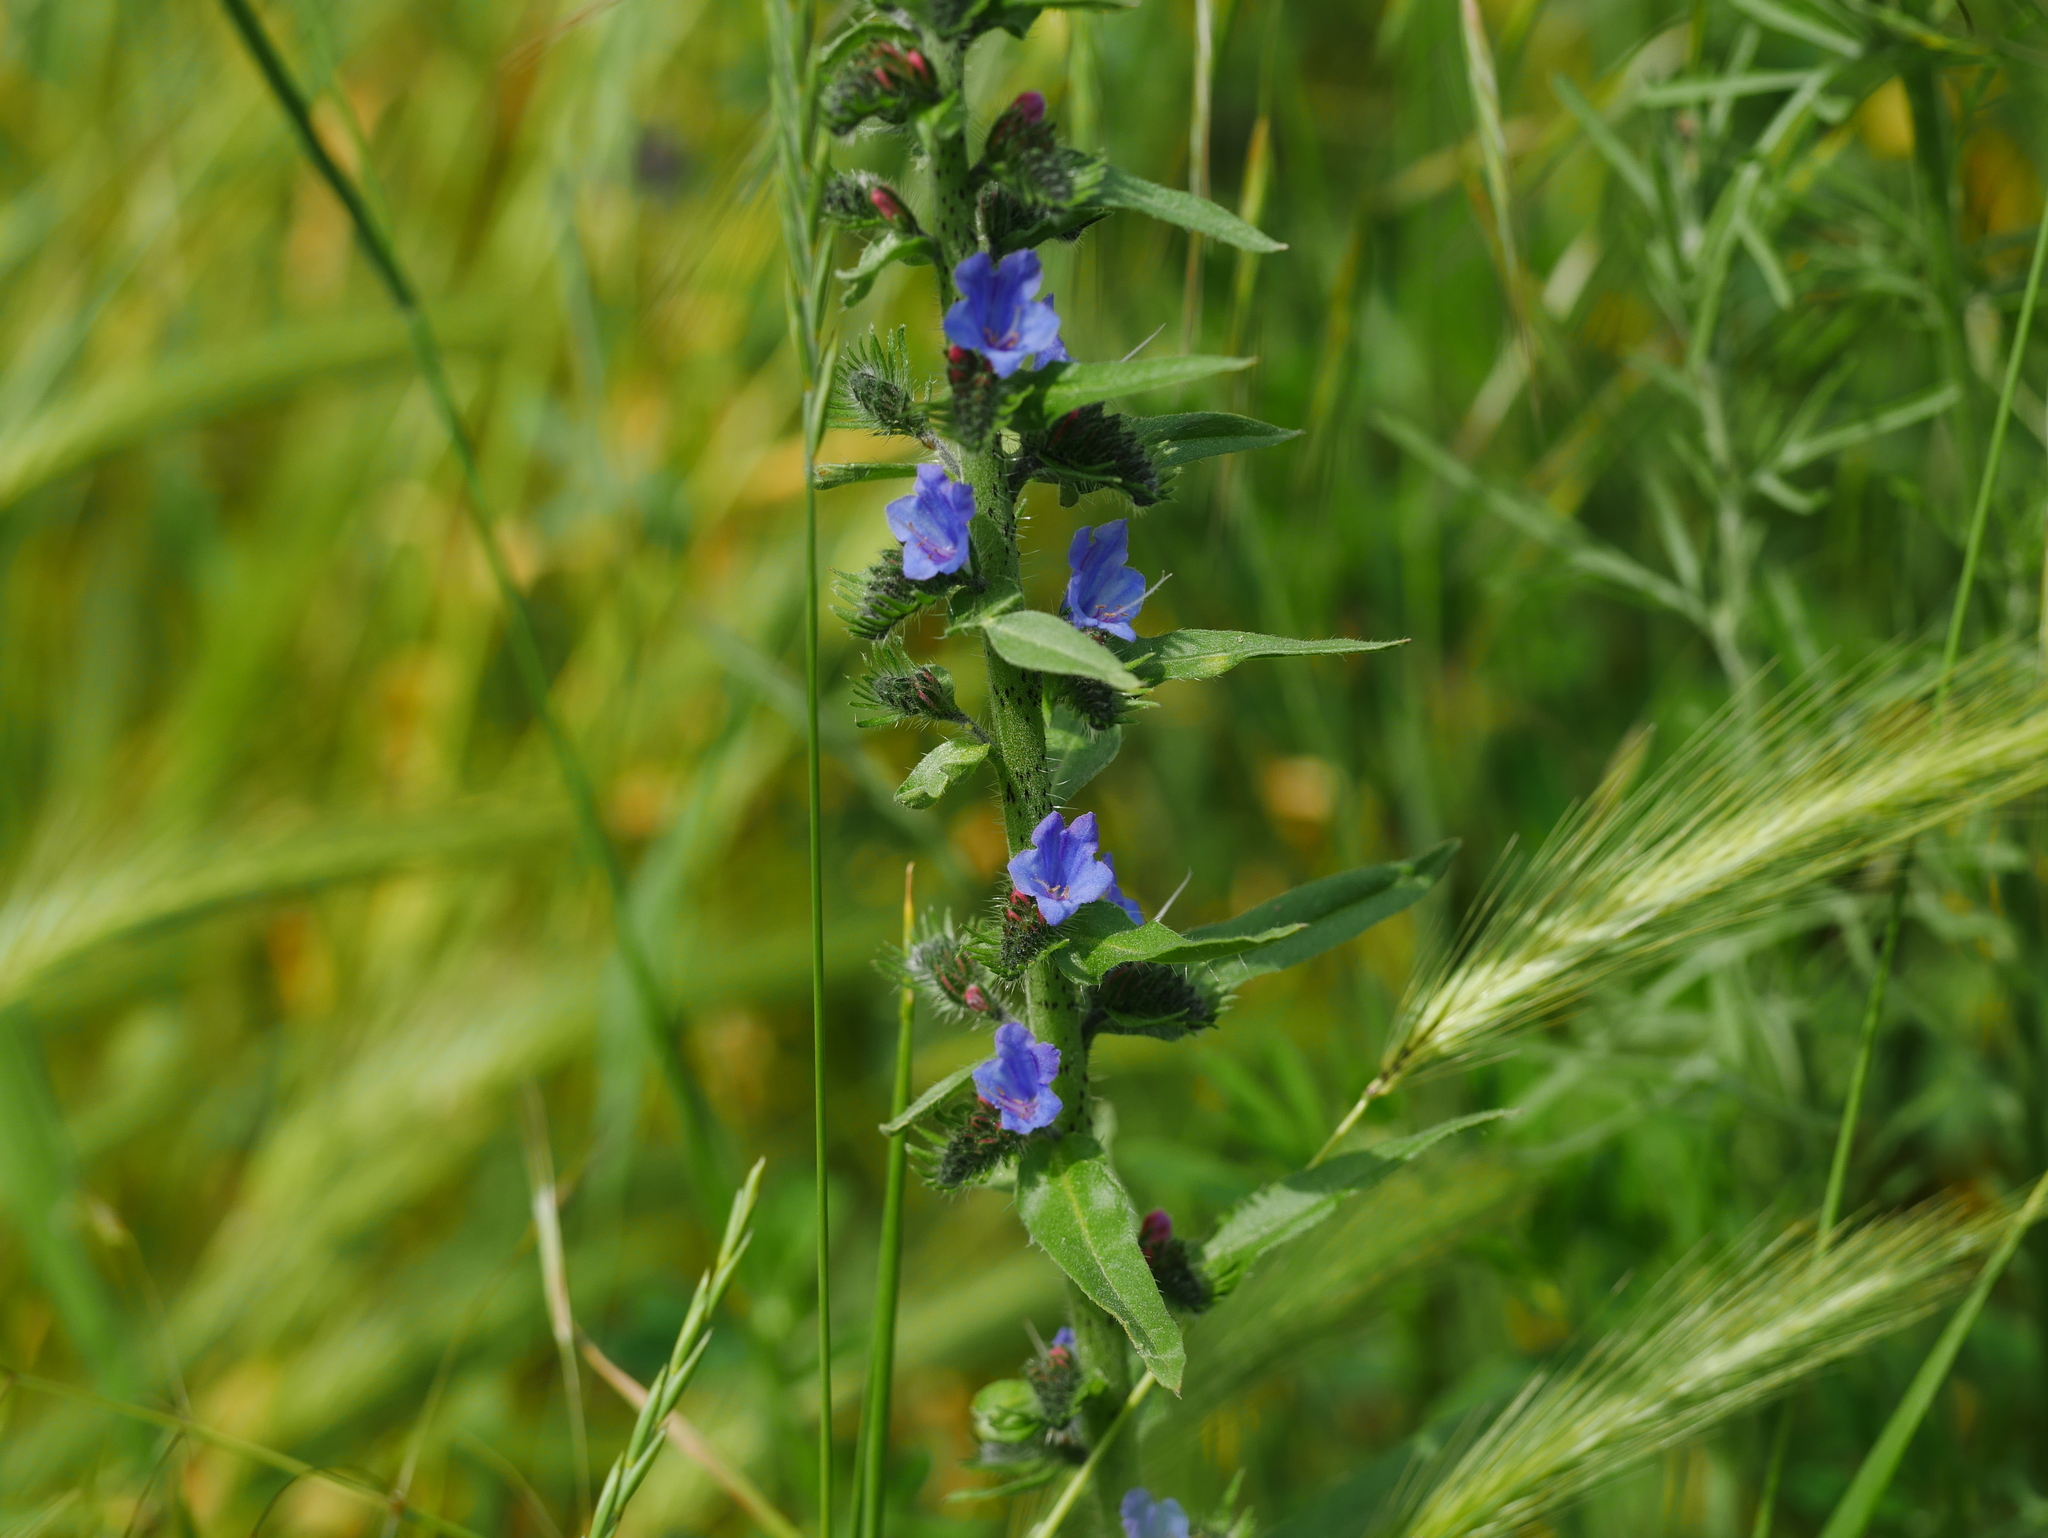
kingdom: Plantae
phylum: Tracheophyta
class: Magnoliopsida
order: Boraginales
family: Boraginaceae
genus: Echium
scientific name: Echium vulgare
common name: Common viper's bugloss
